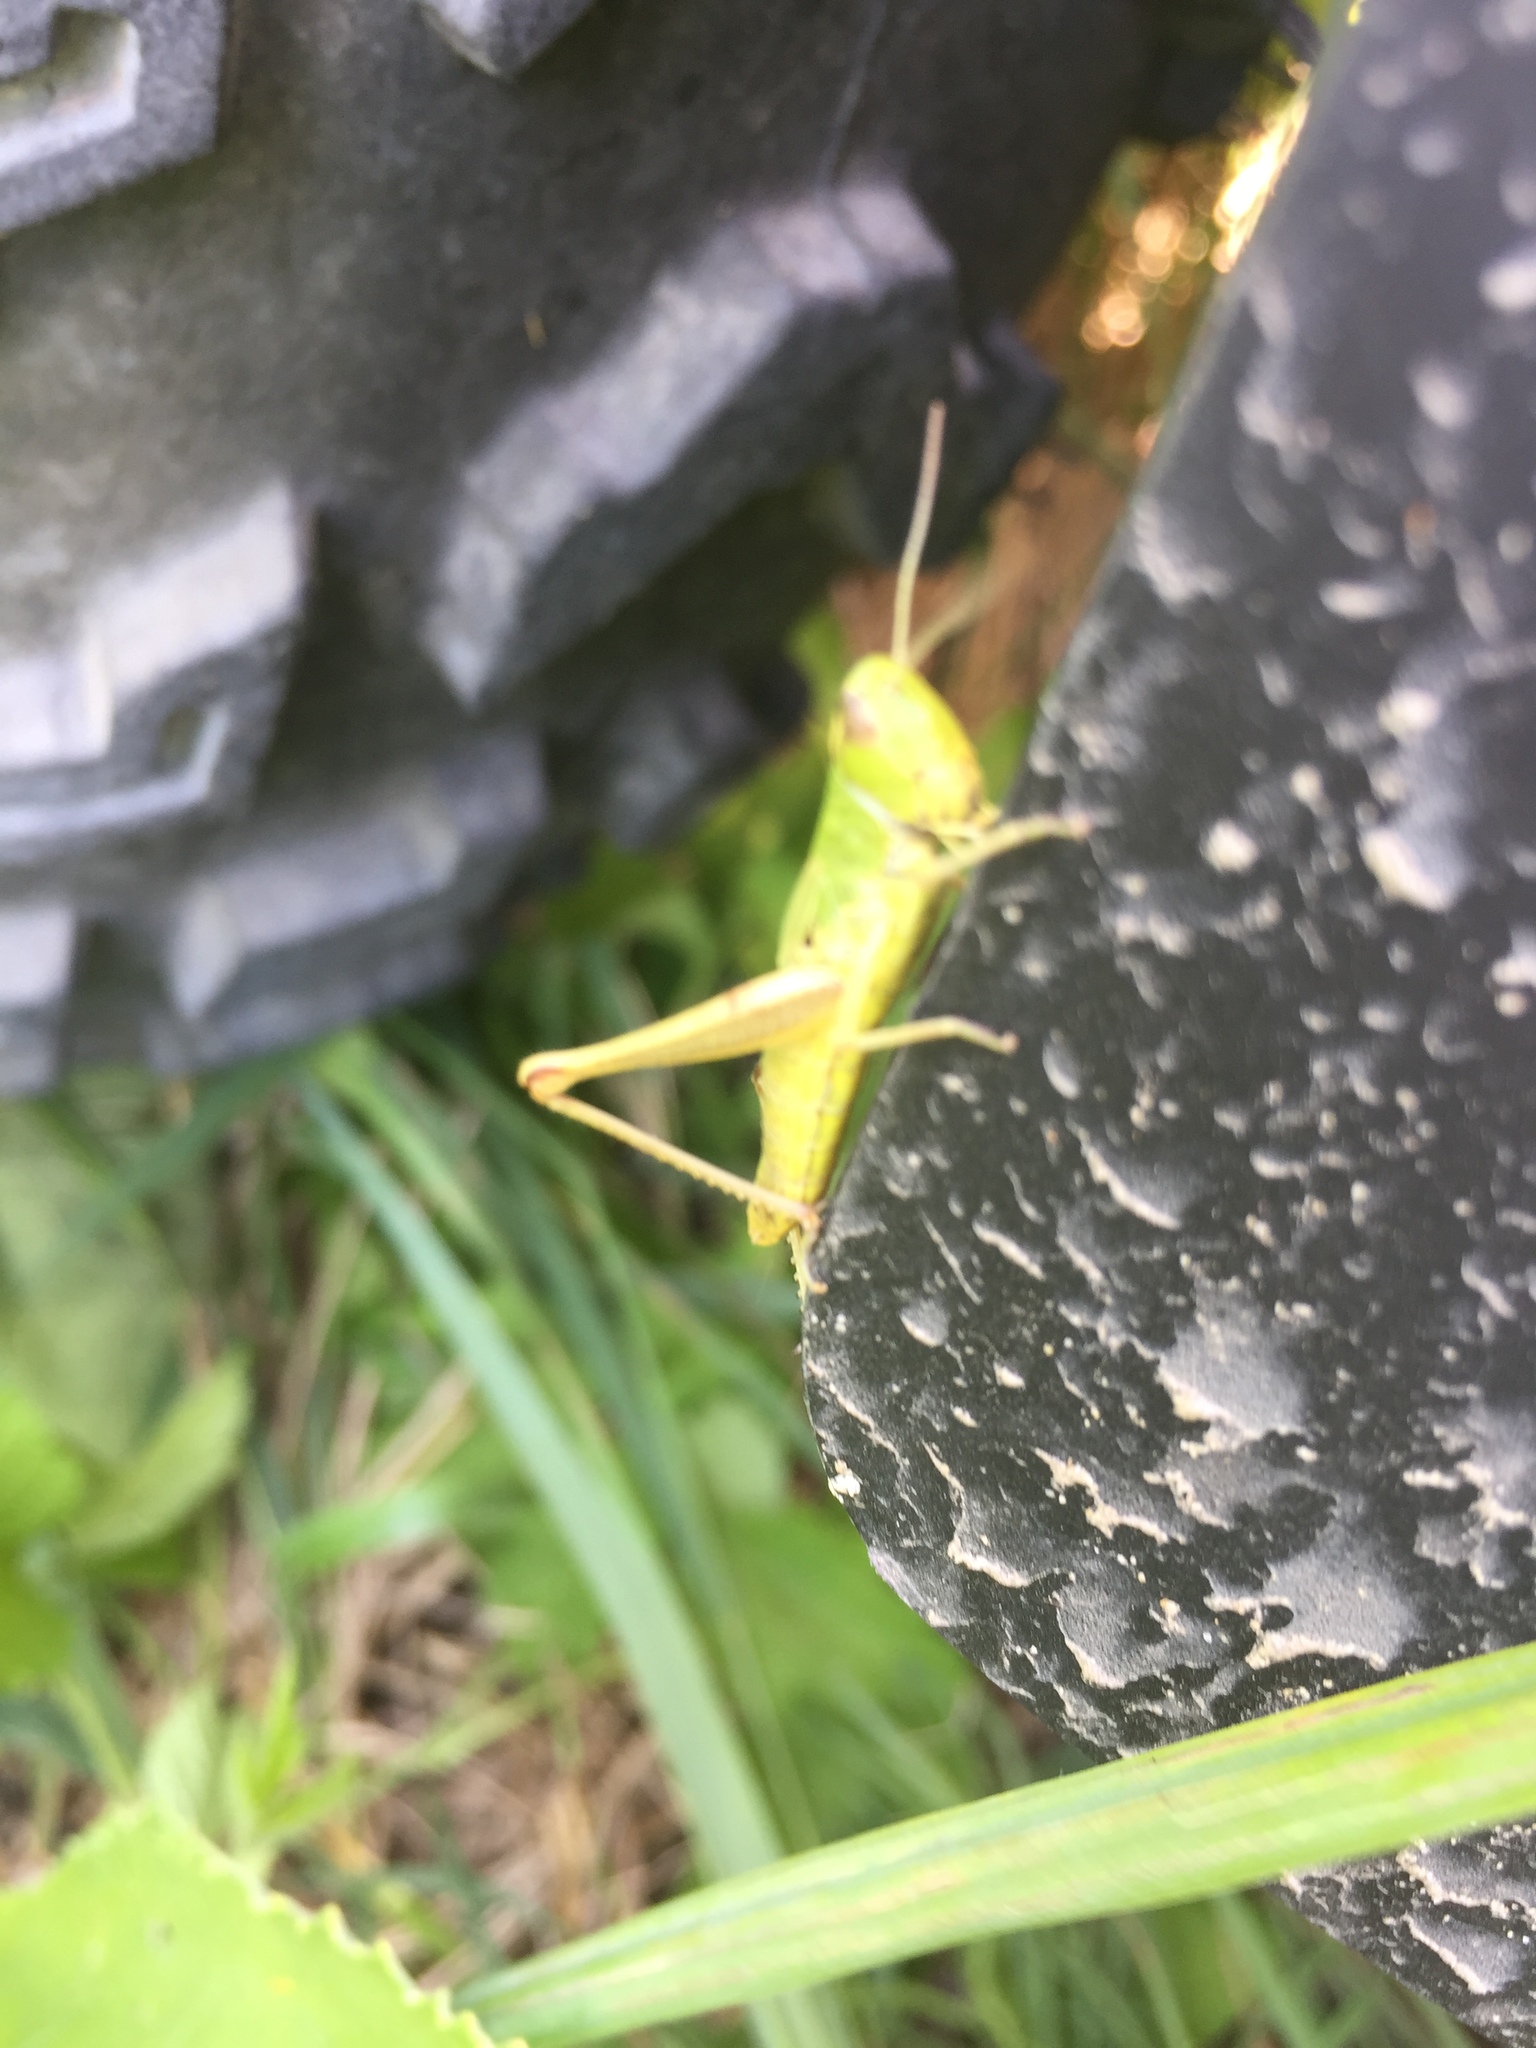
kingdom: Animalia
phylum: Arthropoda
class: Insecta
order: Orthoptera
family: Acrididae
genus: Pseudochorthippus
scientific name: Pseudochorthippus parallelus
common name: Meadow grasshopper
